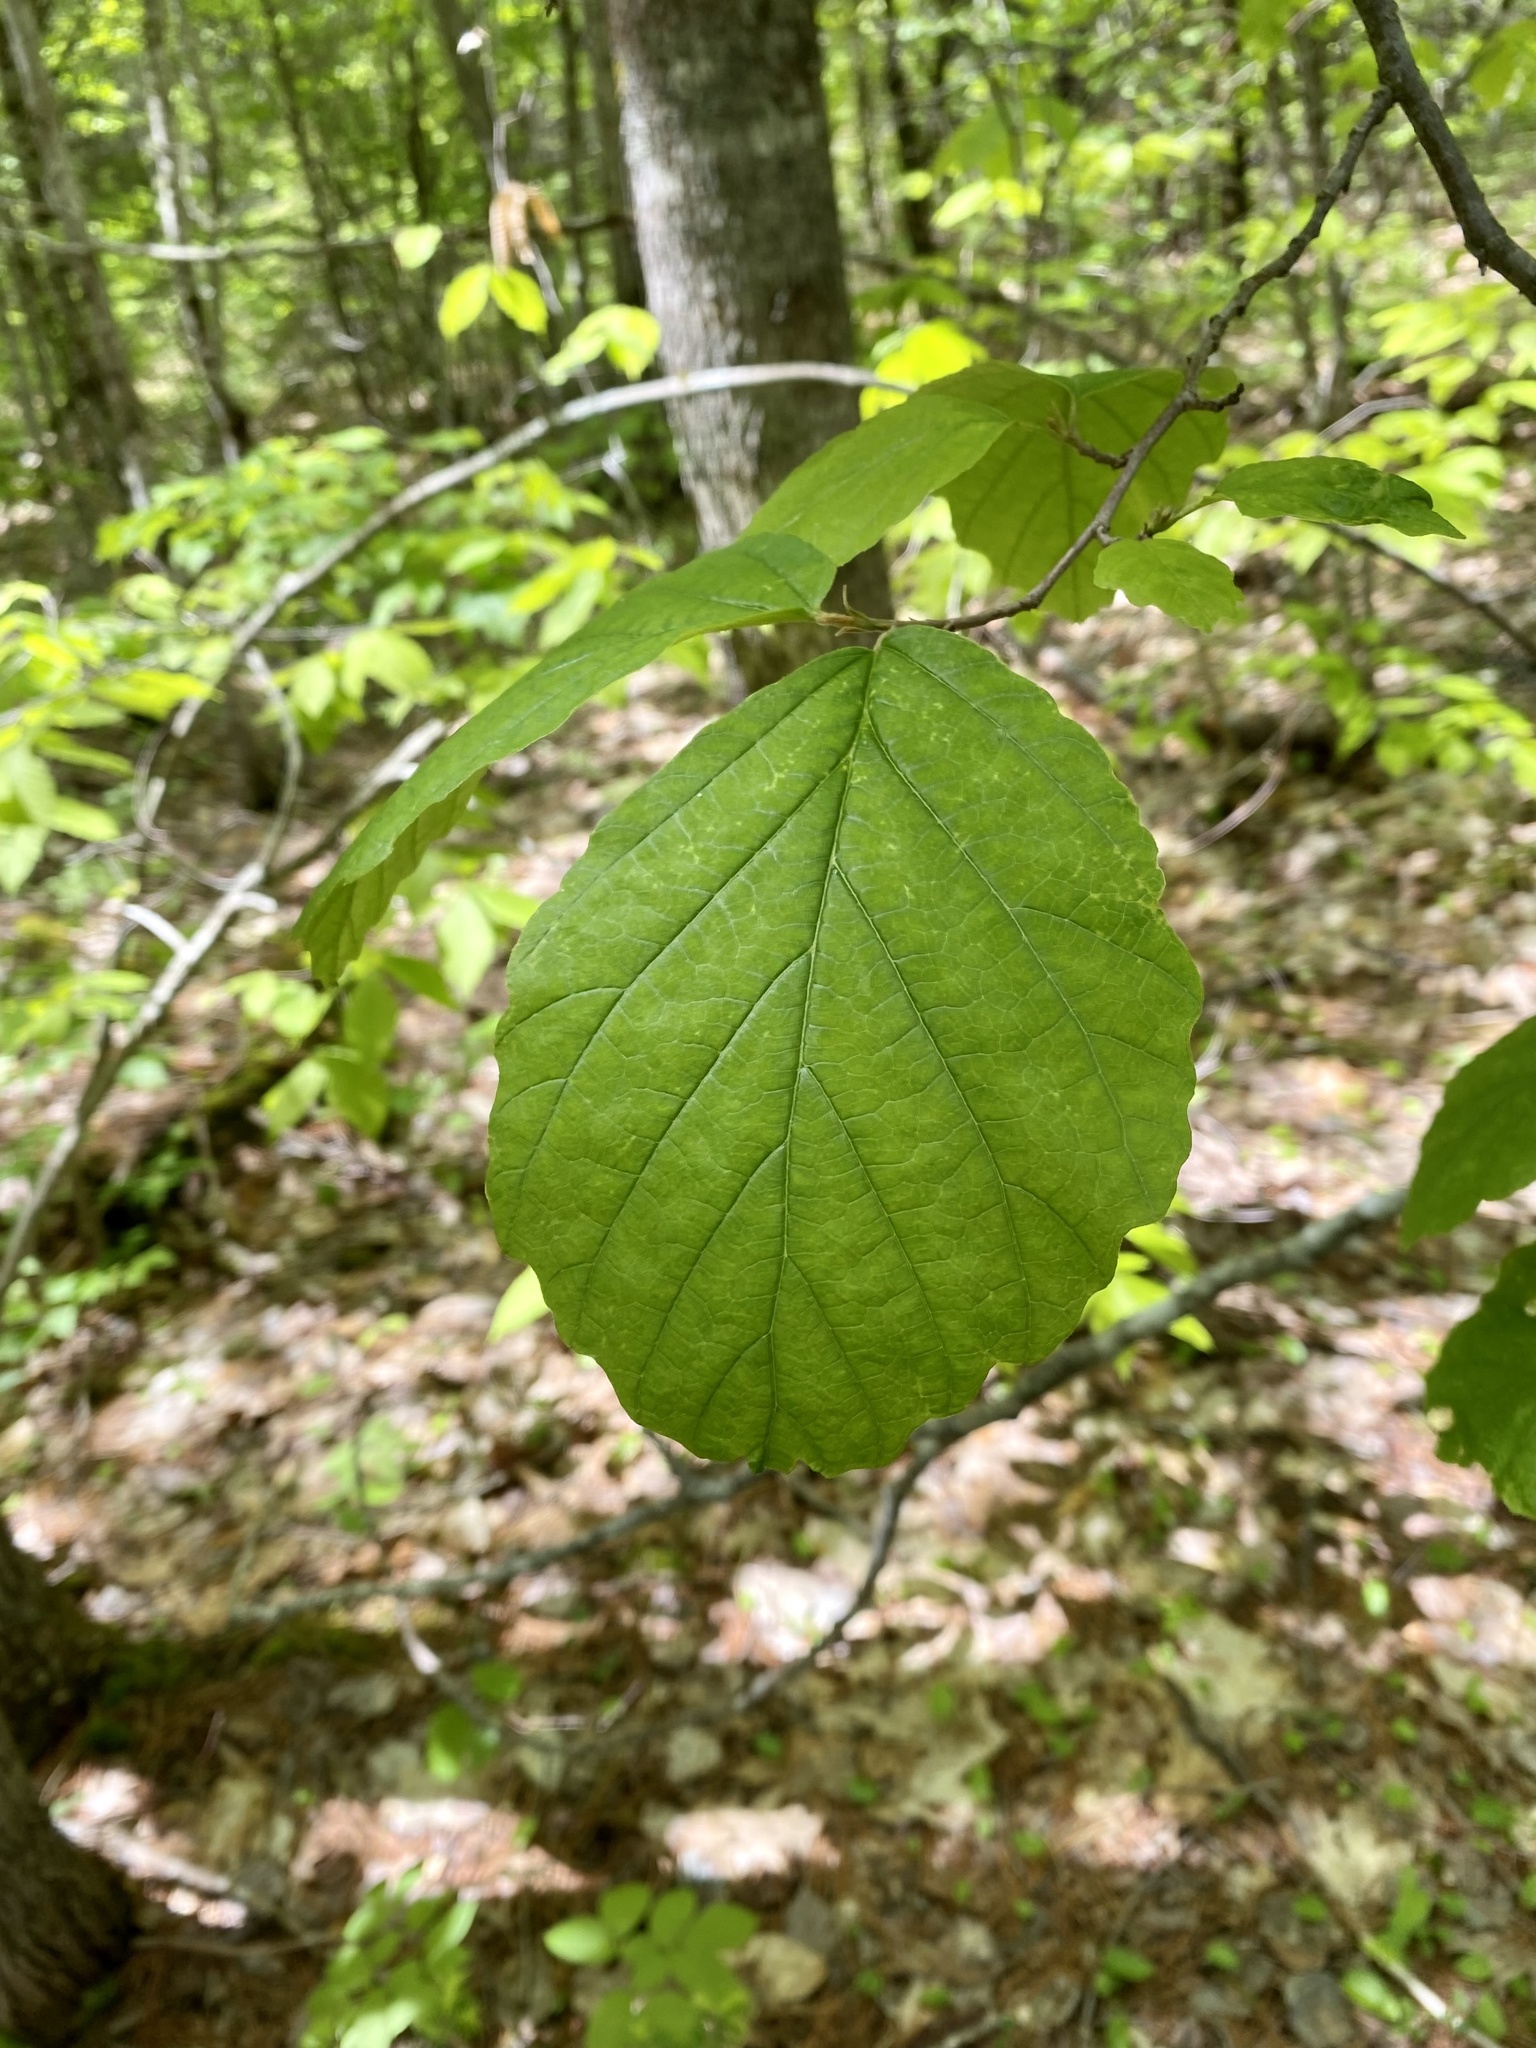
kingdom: Plantae
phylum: Tracheophyta
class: Magnoliopsida
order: Saxifragales
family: Hamamelidaceae
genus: Hamamelis
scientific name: Hamamelis virginiana
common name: Witch-hazel
